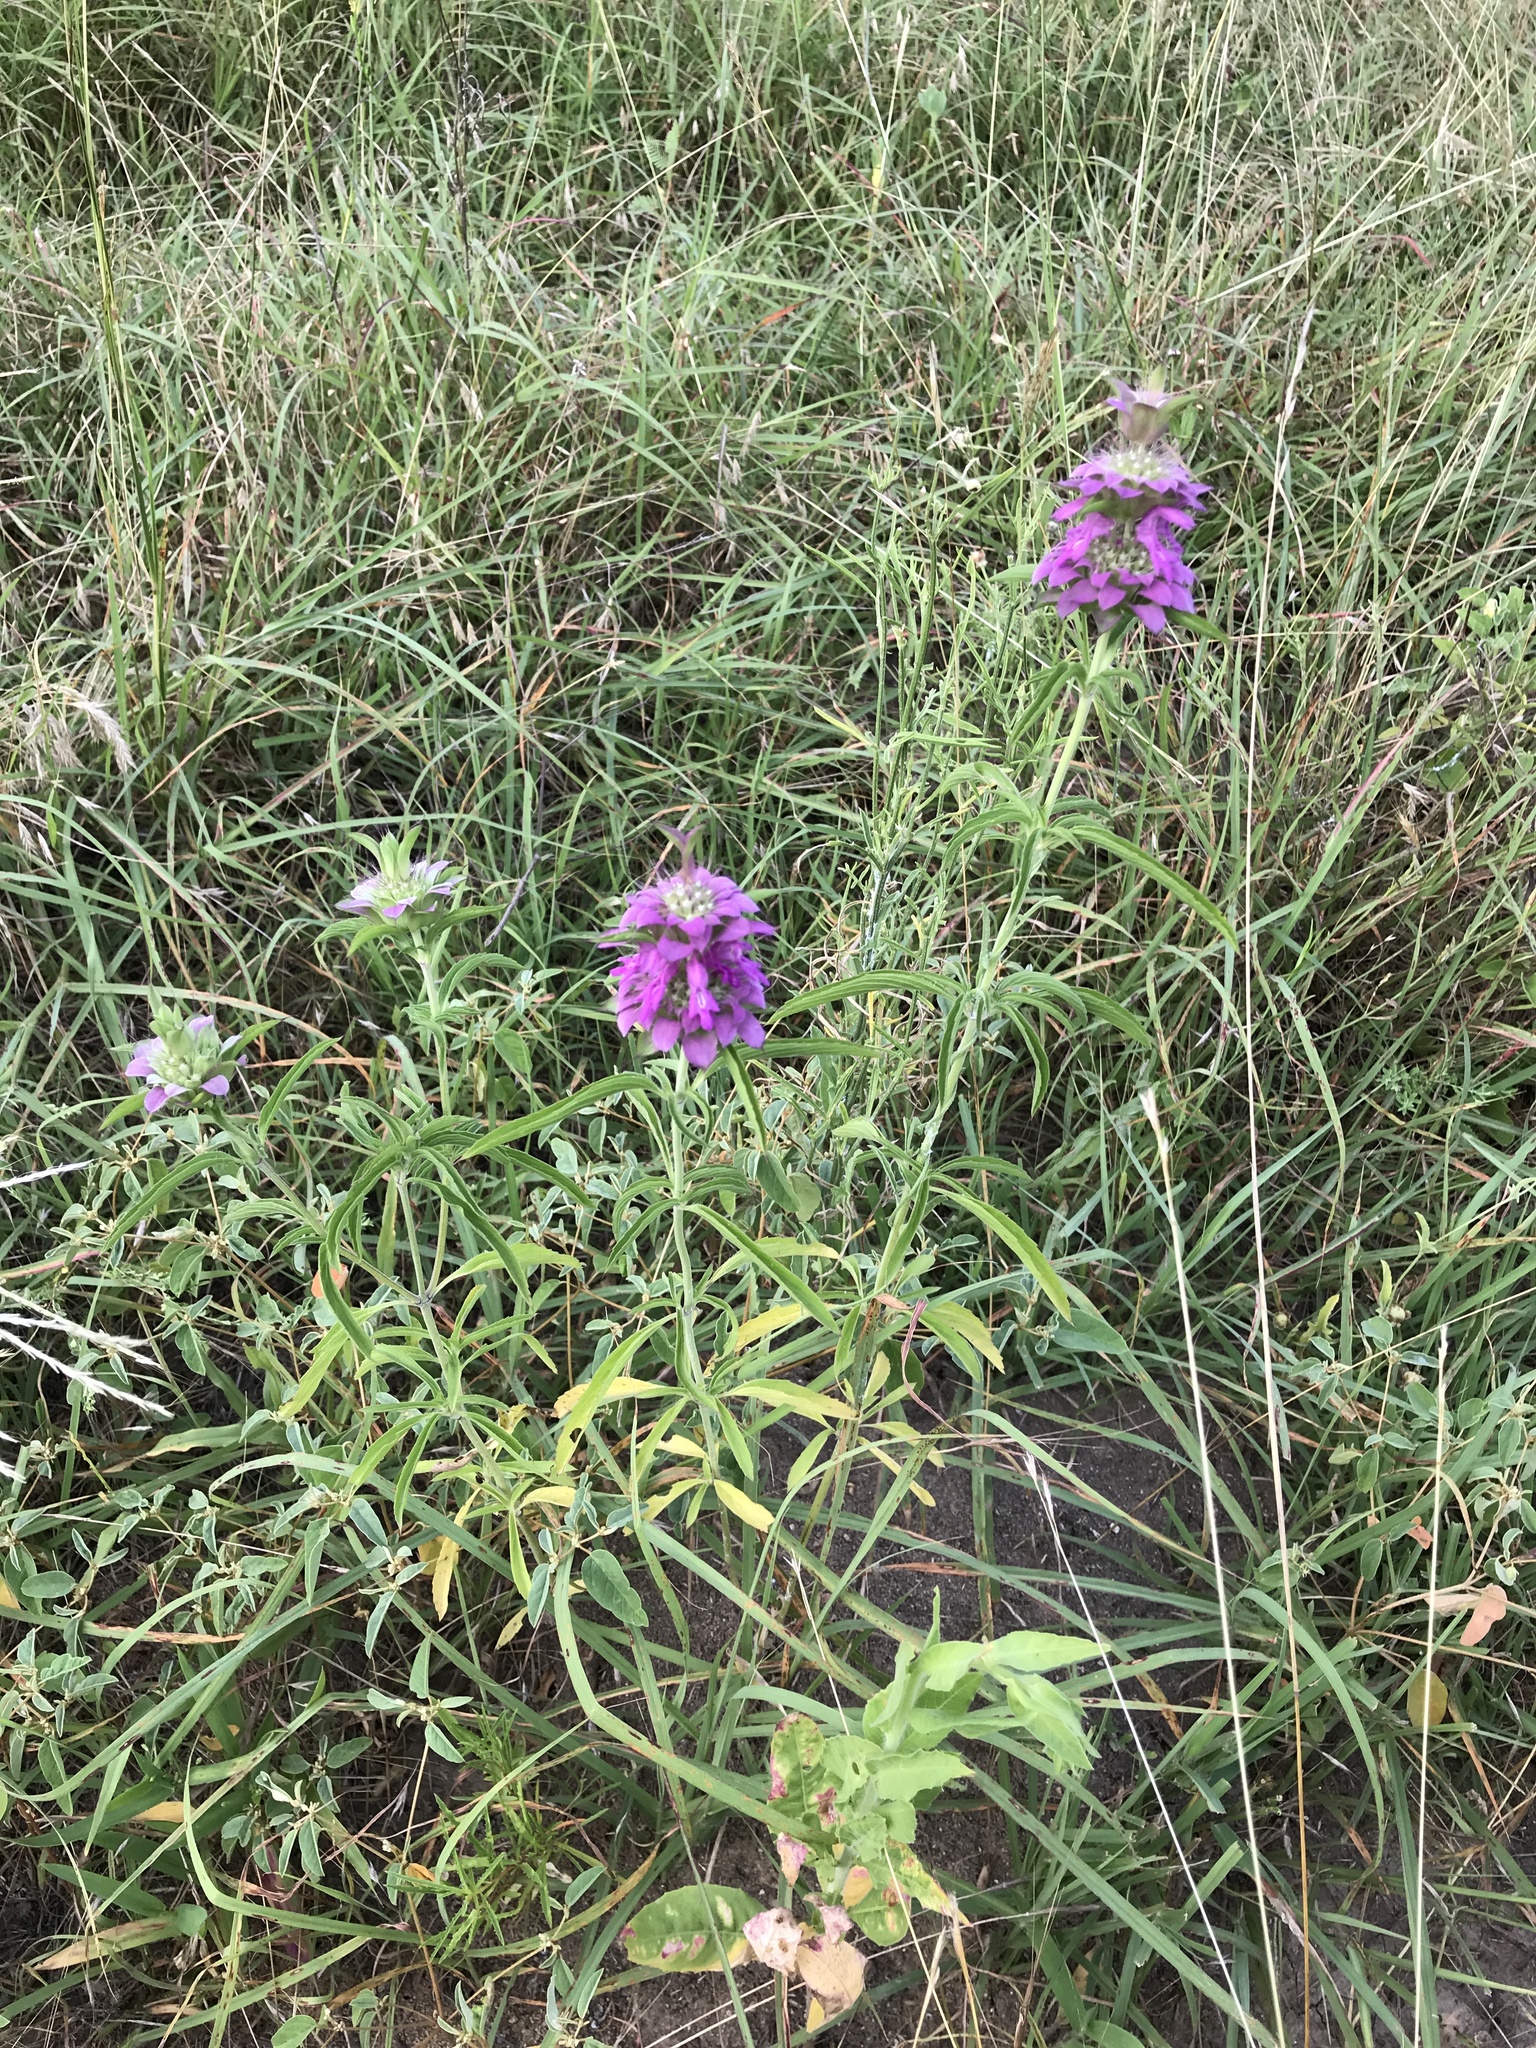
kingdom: Plantae
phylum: Tracheophyta
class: Magnoliopsida
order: Lamiales
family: Lamiaceae
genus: Monarda
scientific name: Monarda citriodora
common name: Lemon beebalm
